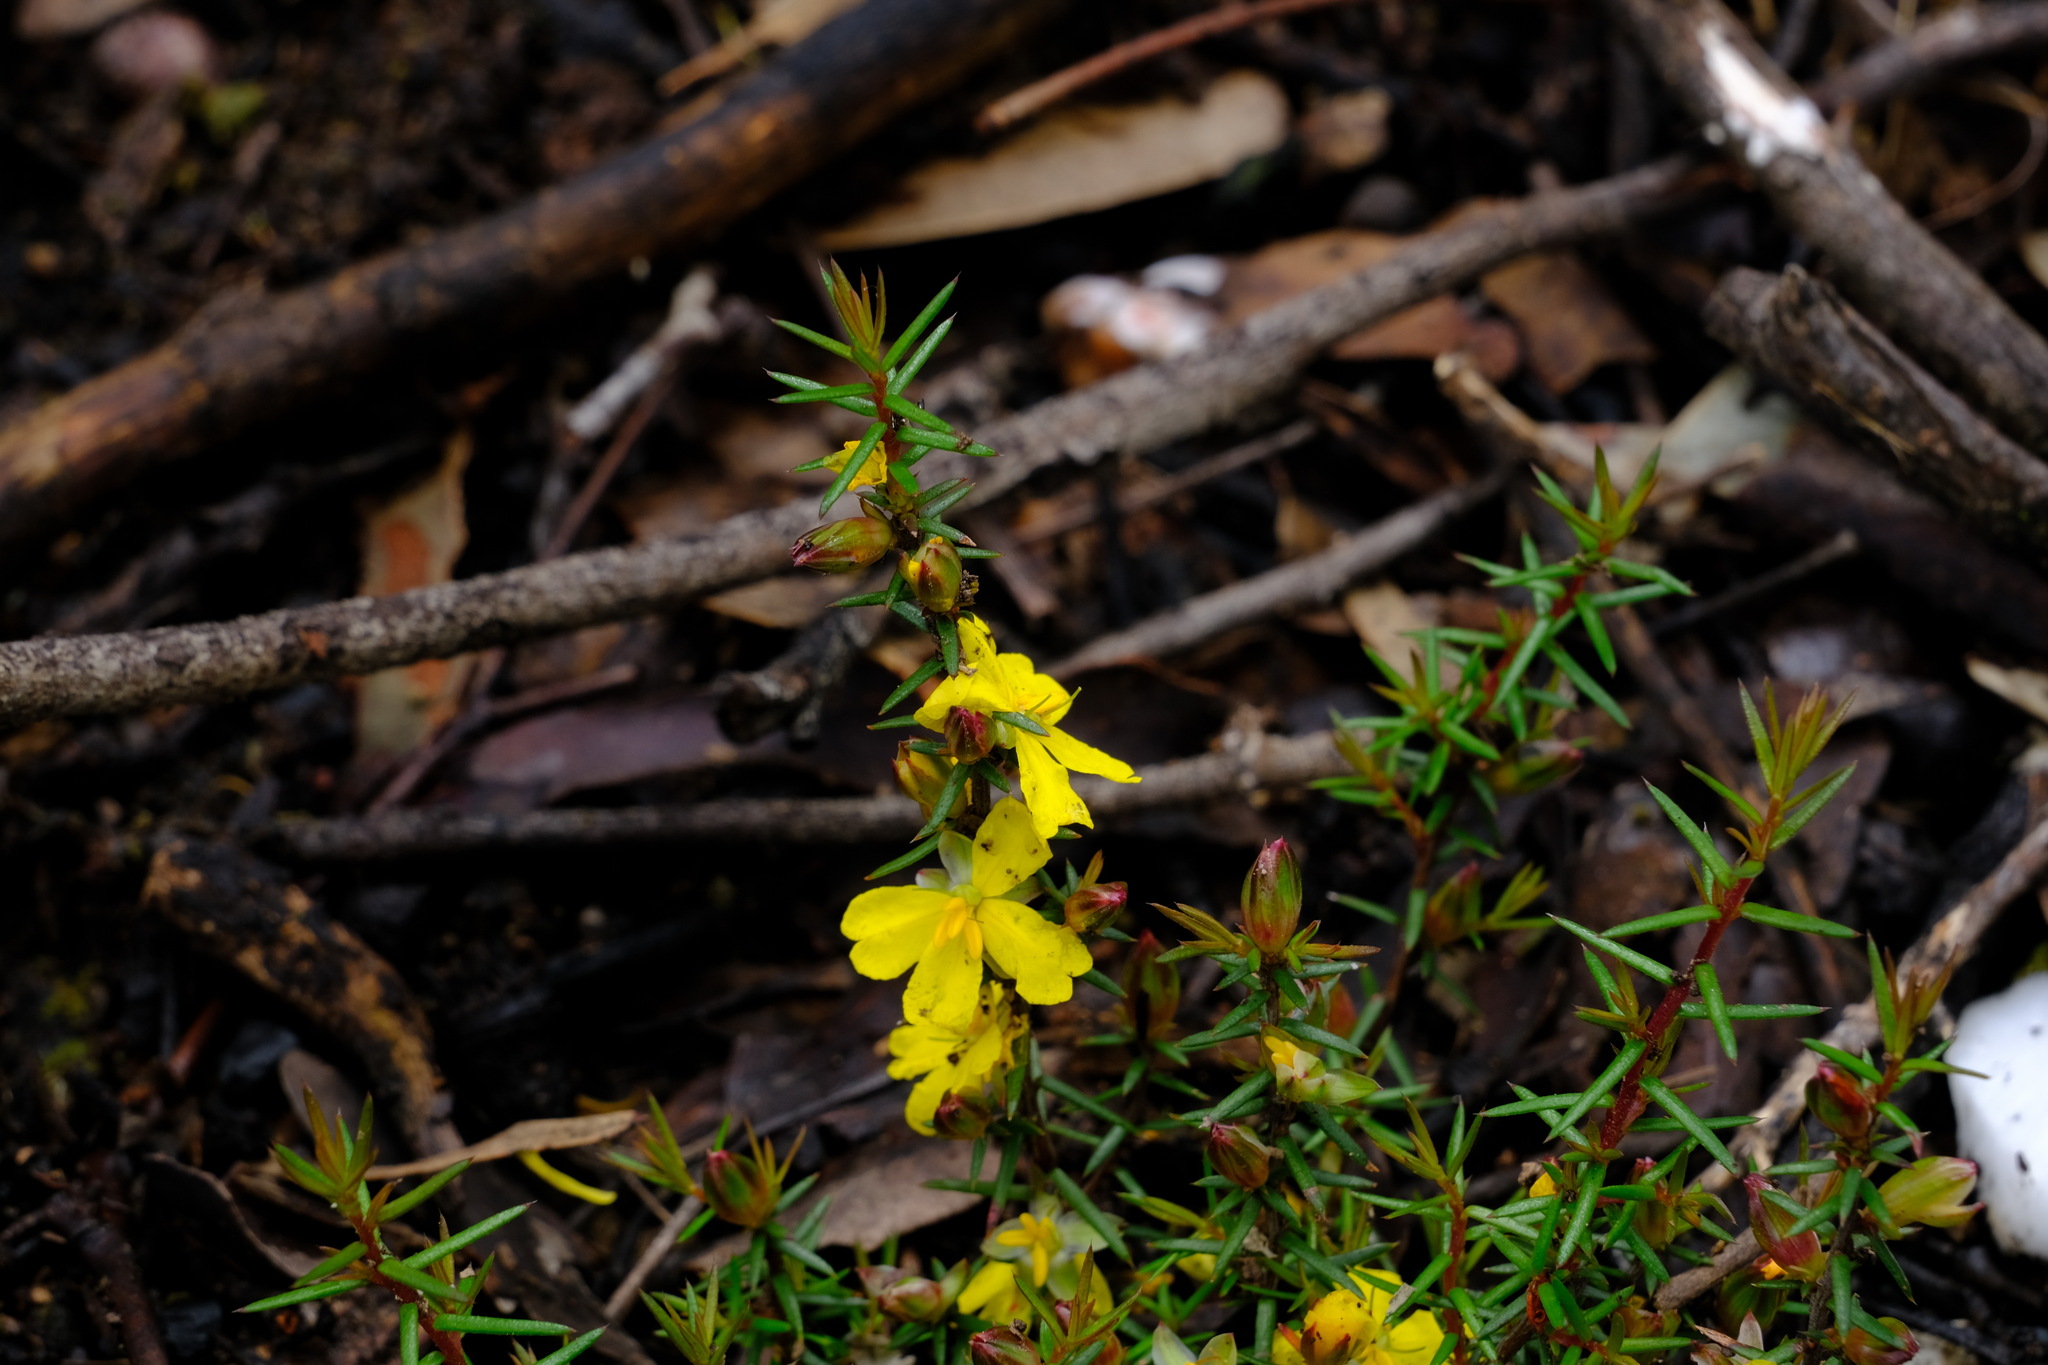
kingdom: Plantae
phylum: Tracheophyta
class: Magnoliopsida
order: Dilleniales
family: Dilleniaceae
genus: Hibbertia
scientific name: Hibbertia exutiacies
